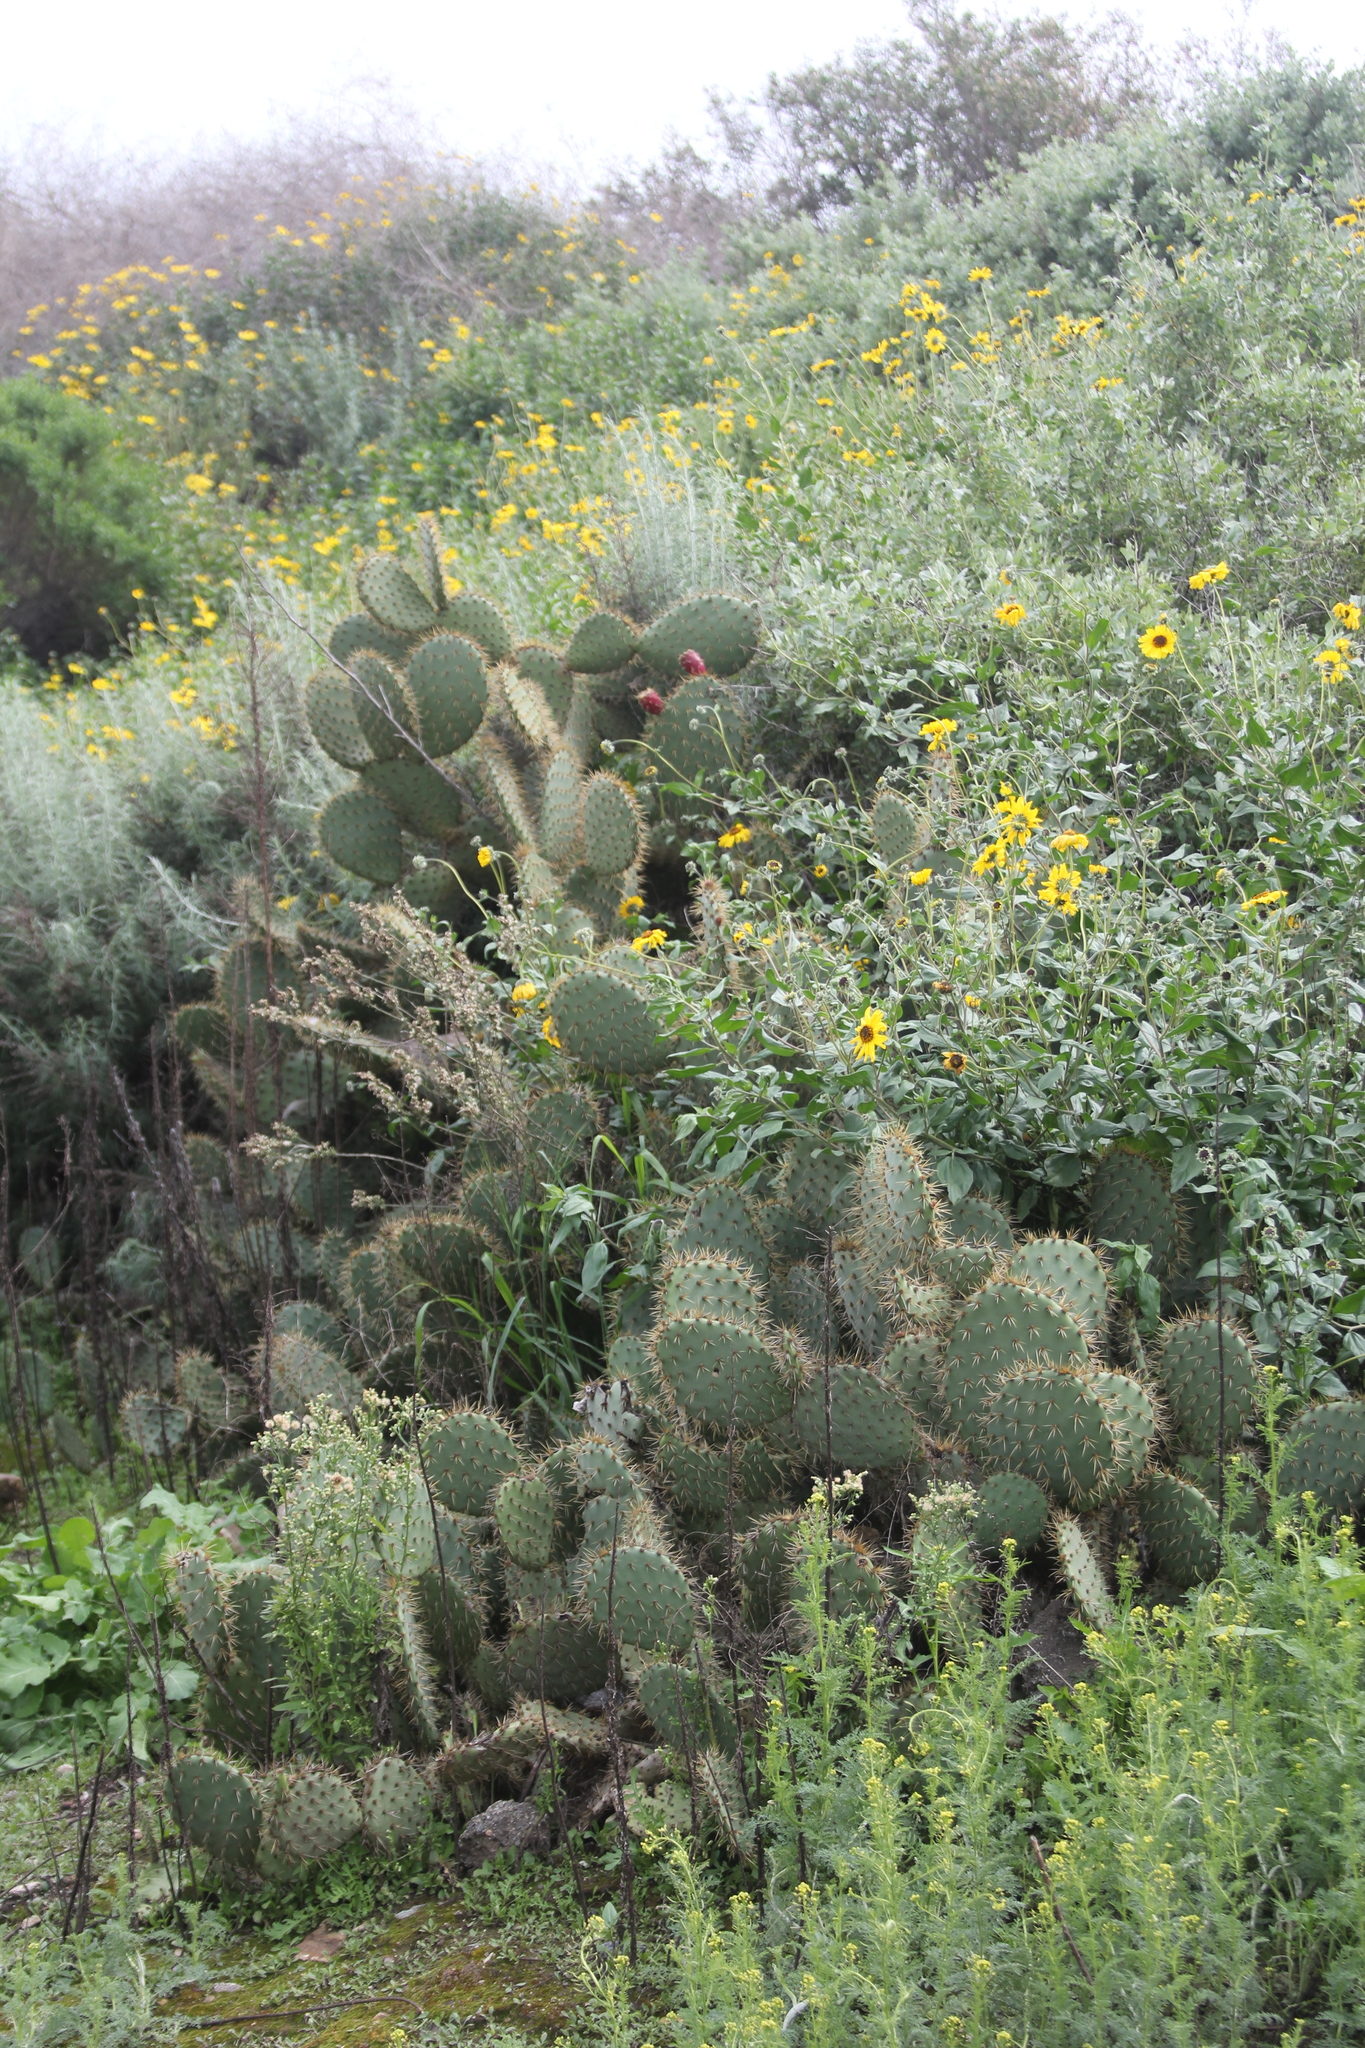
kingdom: Plantae
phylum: Tracheophyta
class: Magnoliopsida
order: Caryophyllales
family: Cactaceae
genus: Opuntia
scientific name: Opuntia oricola
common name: Chaparral prickly-pear
